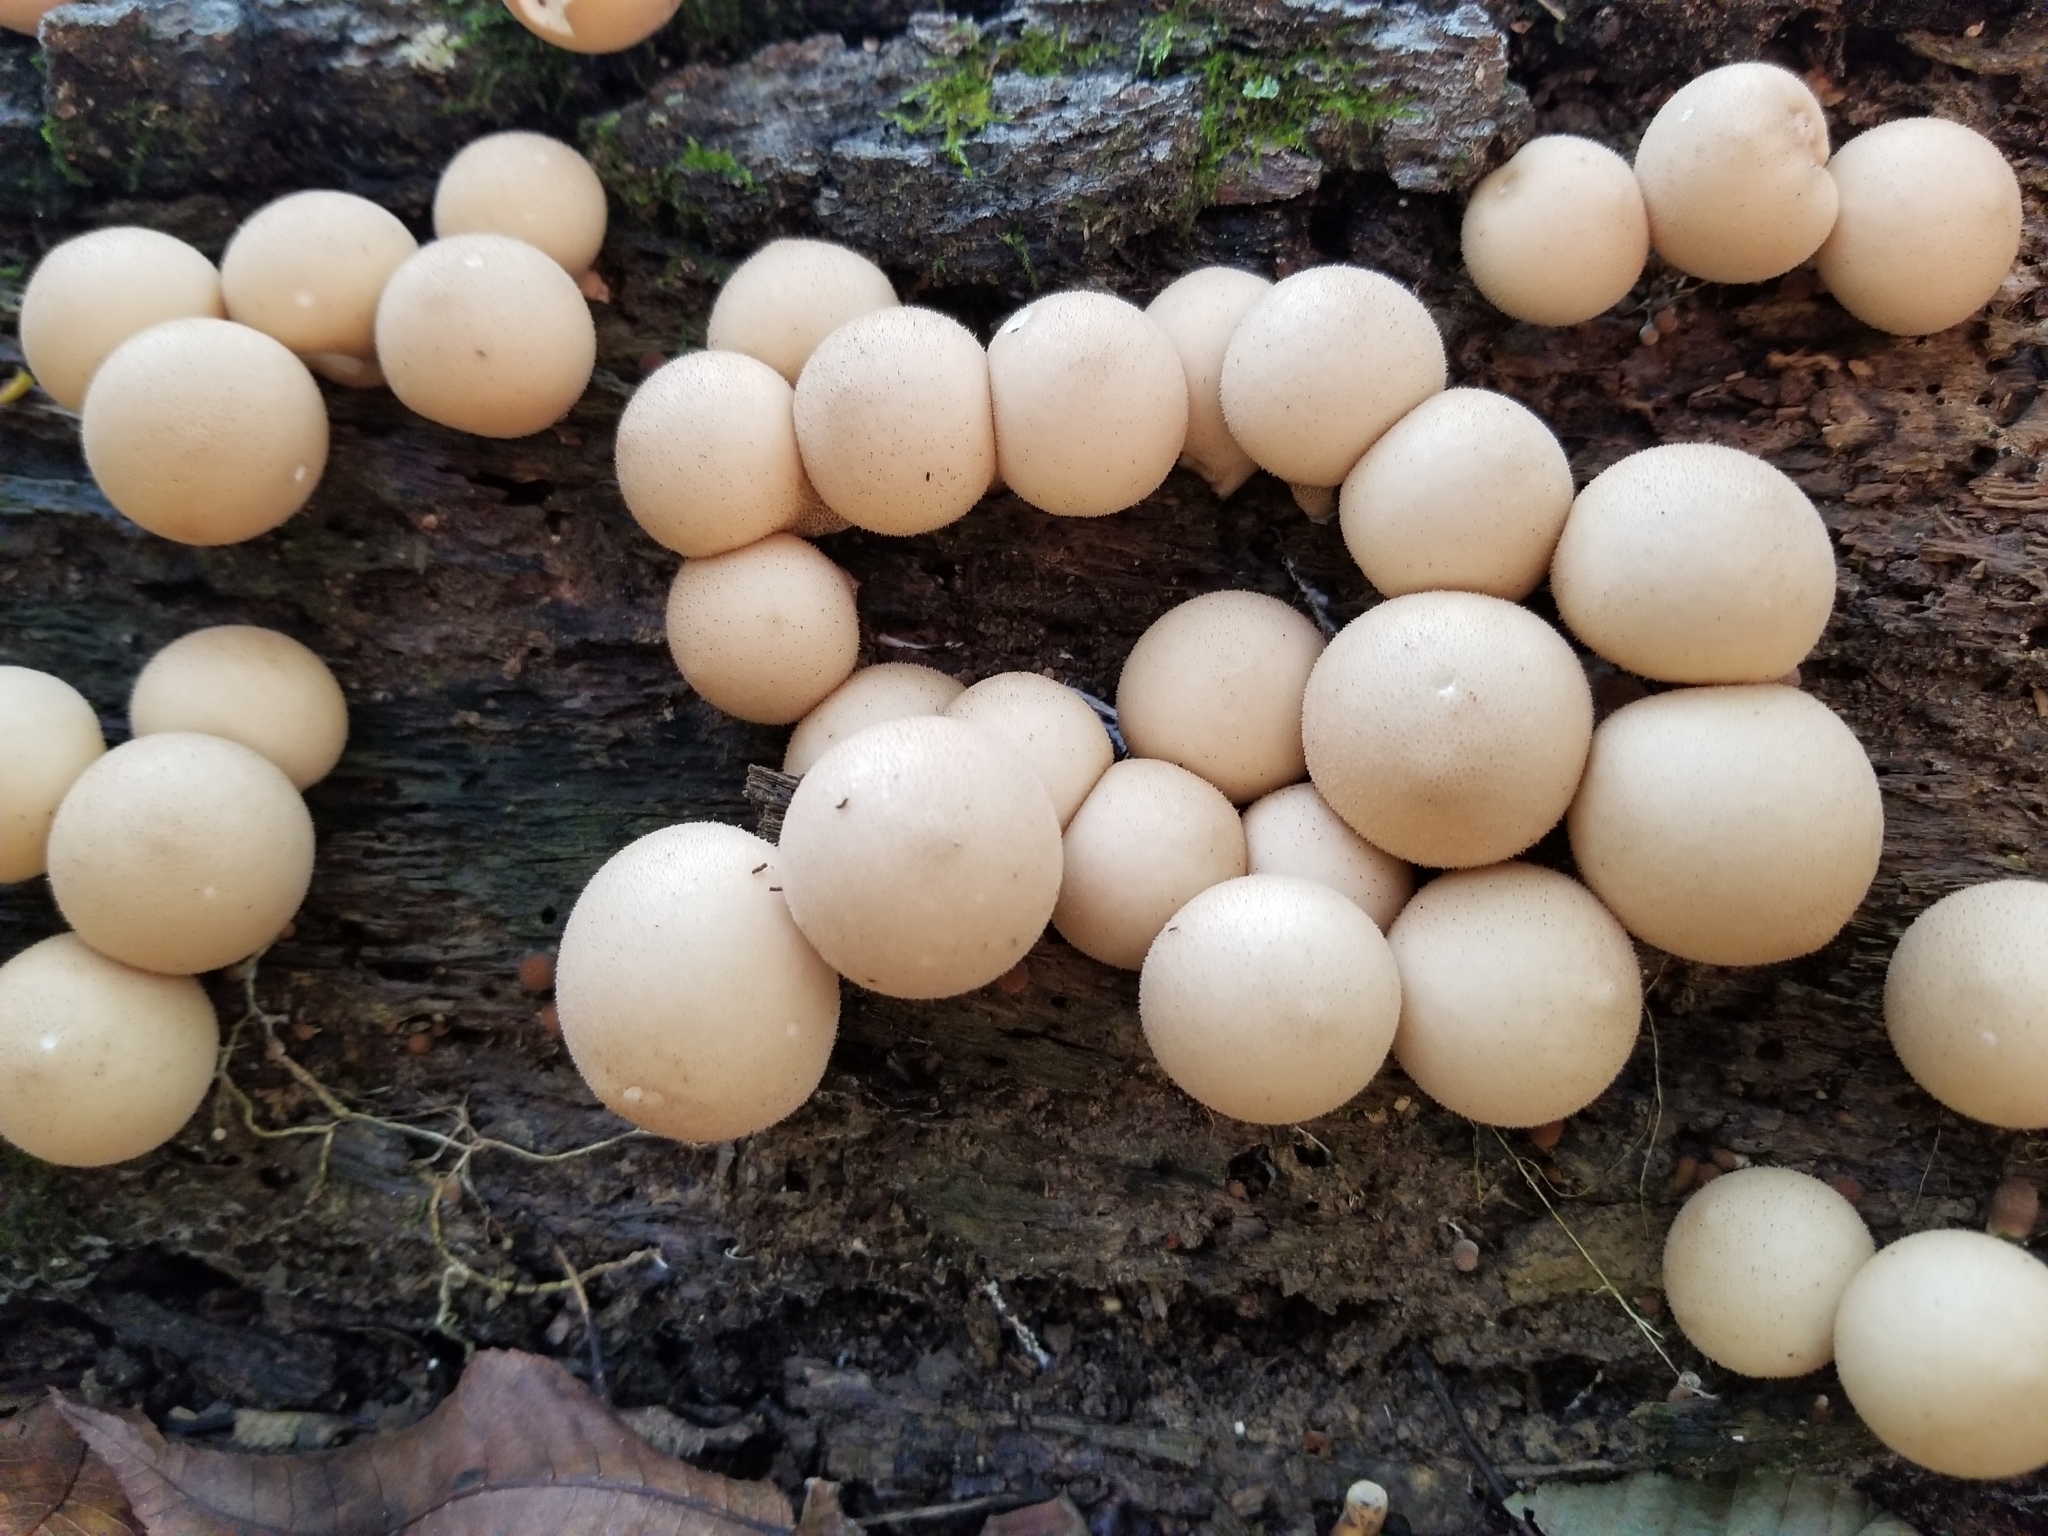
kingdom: Fungi
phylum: Basidiomycota
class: Agaricomycetes
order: Agaricales
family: Lycoperdaceae
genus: Apioperdon
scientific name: Apioperdon pyriforme
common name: Pear-shaped puffball
